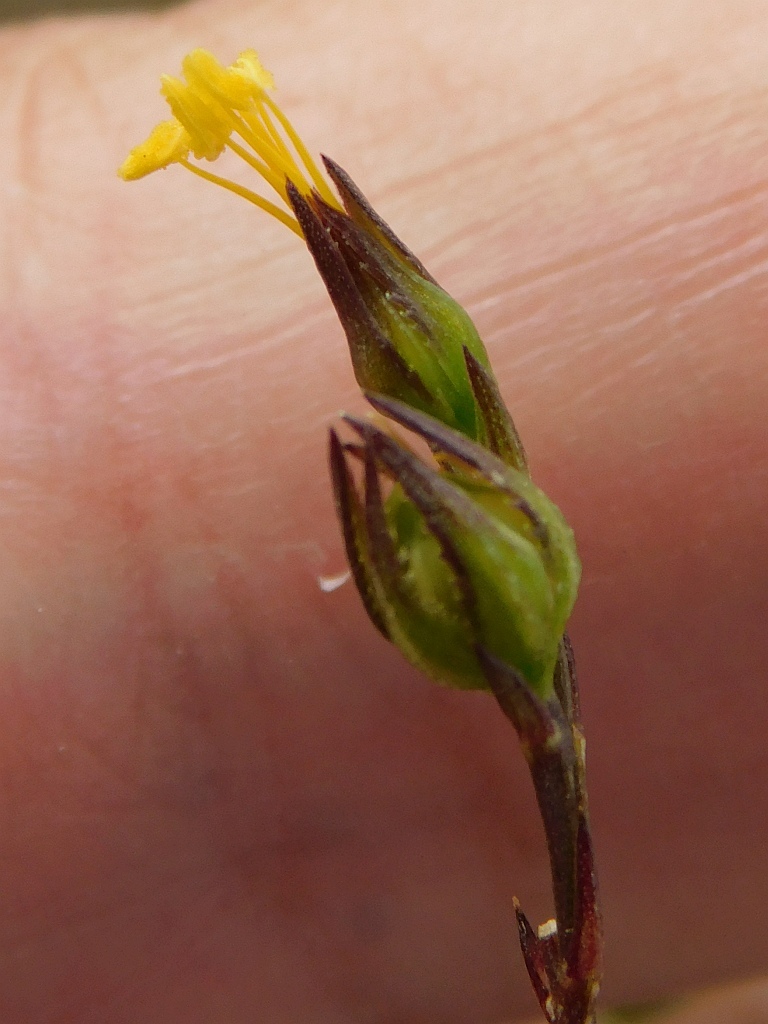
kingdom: Plantae
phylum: Tracheophyta
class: Magnoliopsida
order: Malpighiales
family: Linaceae
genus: Linum
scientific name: Linum africanum
